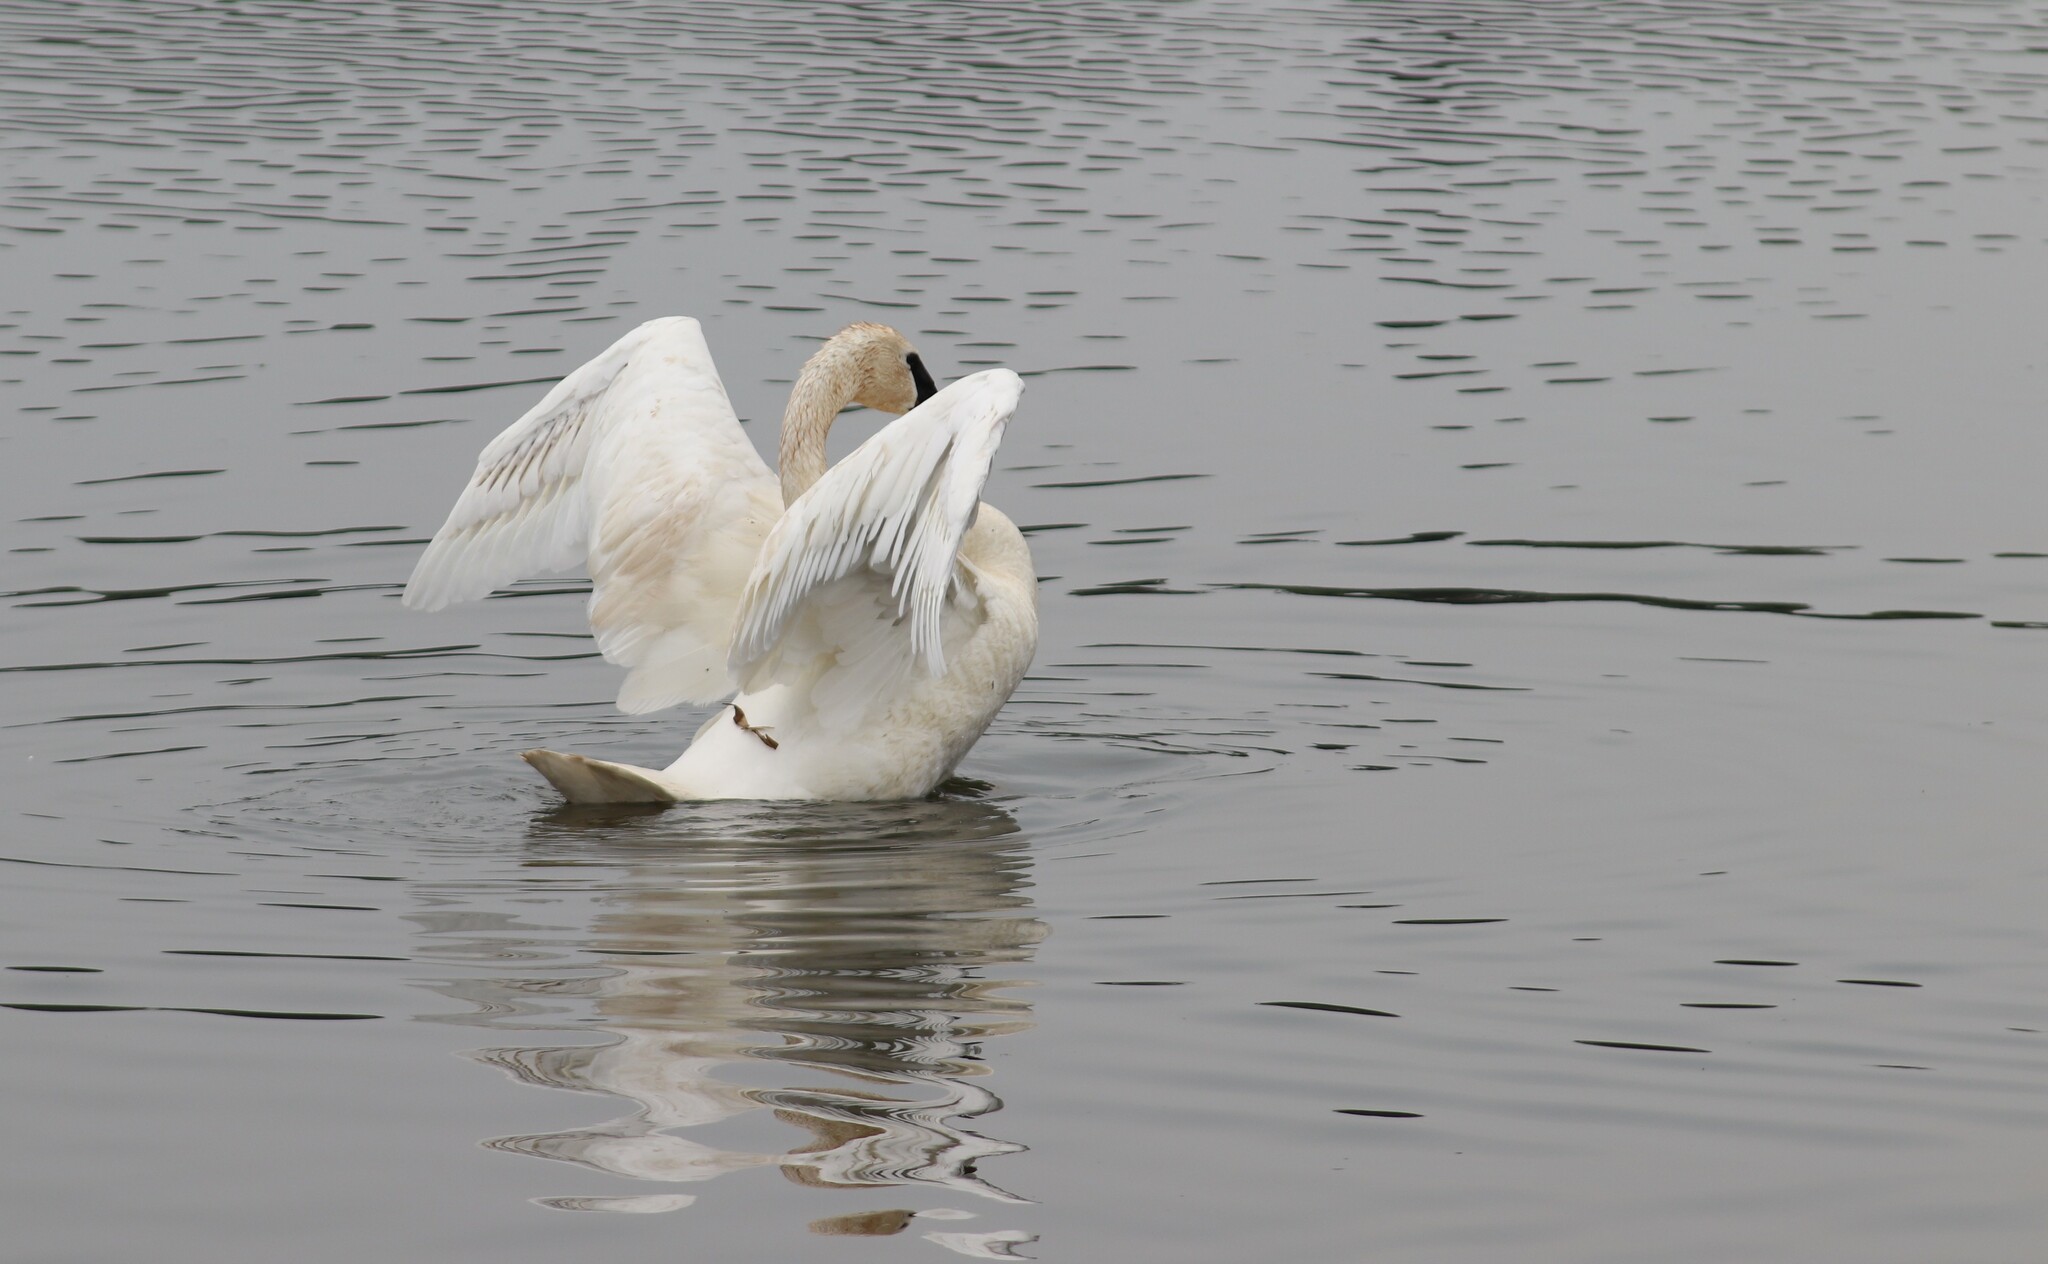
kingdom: Animalia
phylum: Chordata
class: Aves
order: Anseriformes
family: Anatidae
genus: Cygnus
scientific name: Cygnus buccinator
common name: Trumpeter swan
